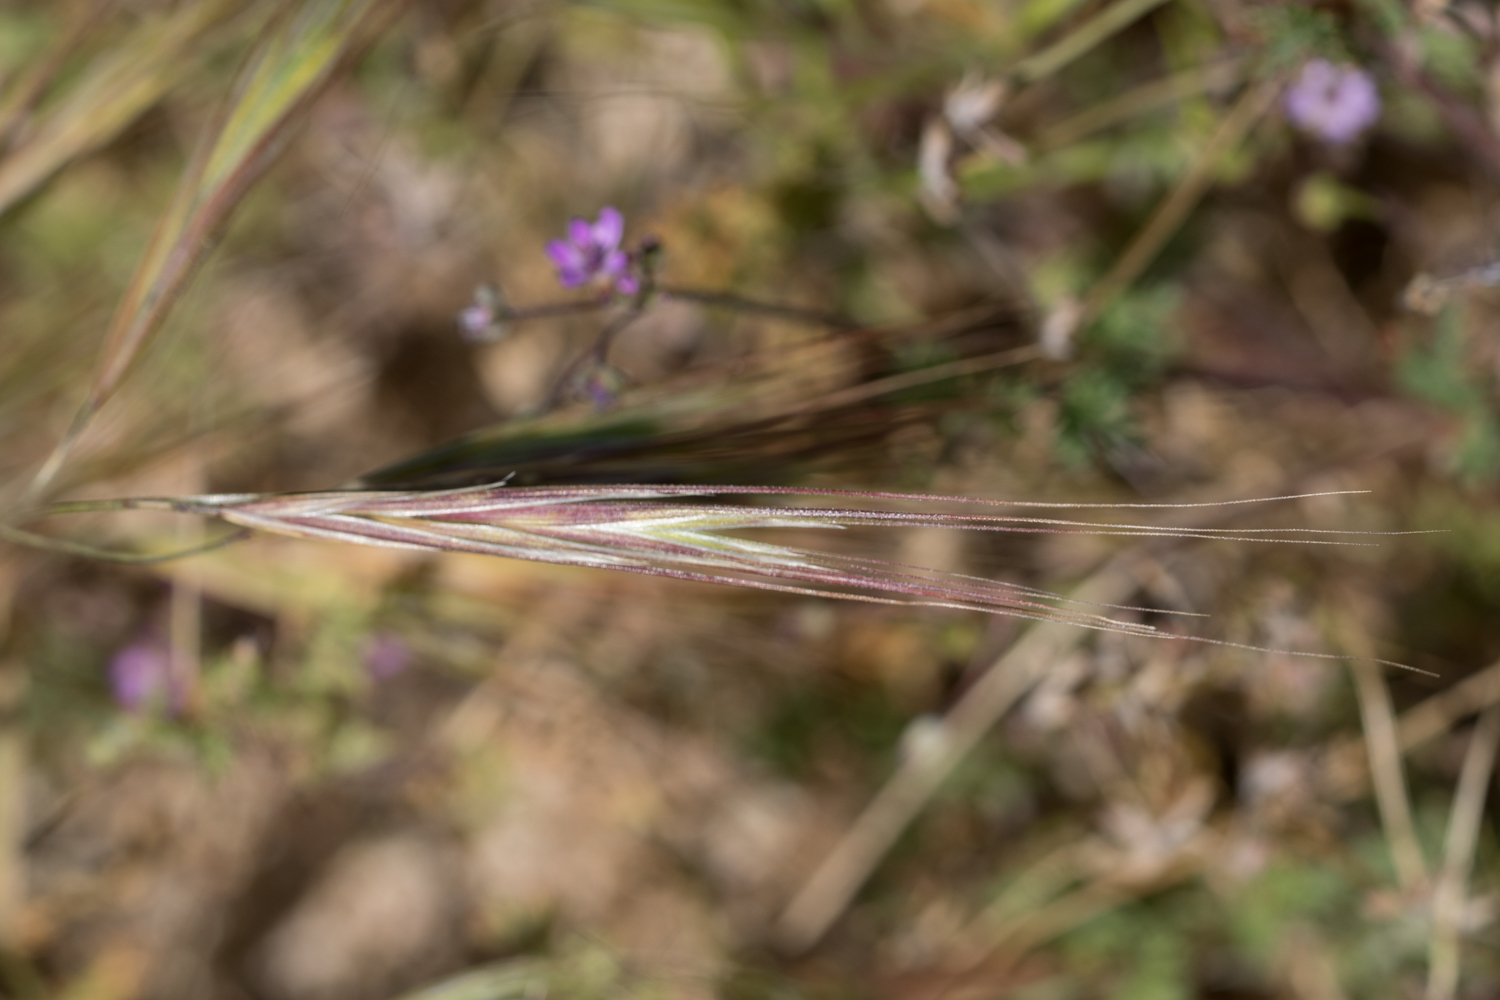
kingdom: Plantae
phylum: Tracheophyta
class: Liliopsida
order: Poales
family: Poaceae
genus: Bromus
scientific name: Bromus diandrus
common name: Ripgut brome
